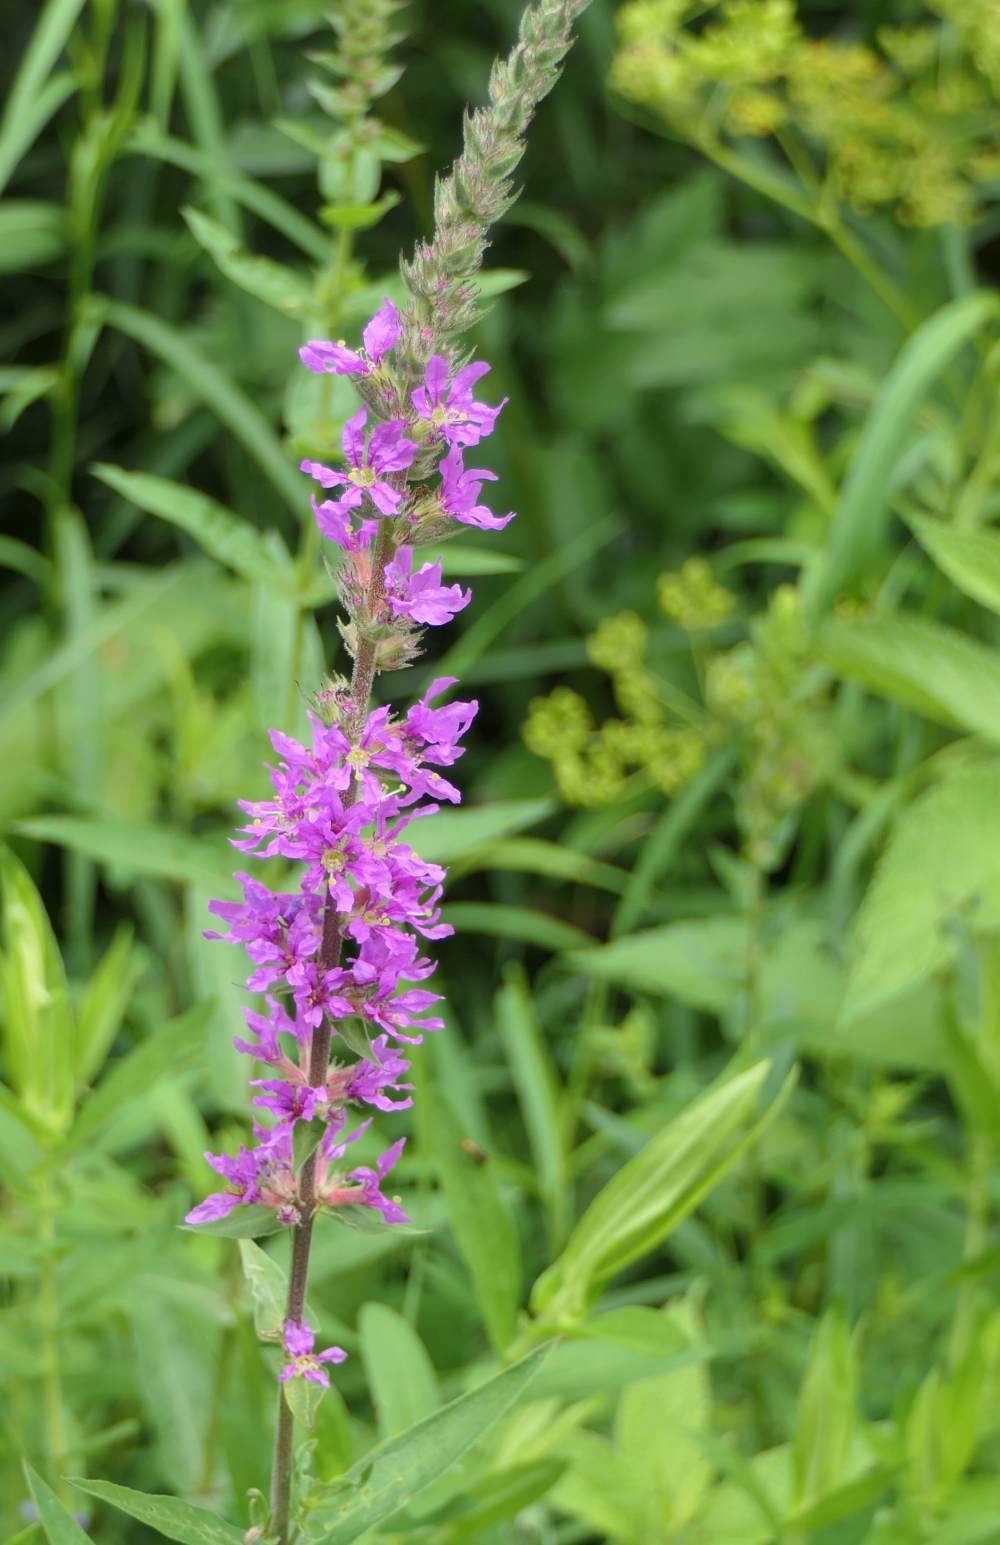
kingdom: Plantae
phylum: Tracheophyta
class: Magnoliopsida
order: Myrtales
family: Lythraceae
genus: Lythrum
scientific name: Lythrum salicaria
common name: Purple loosestrife
